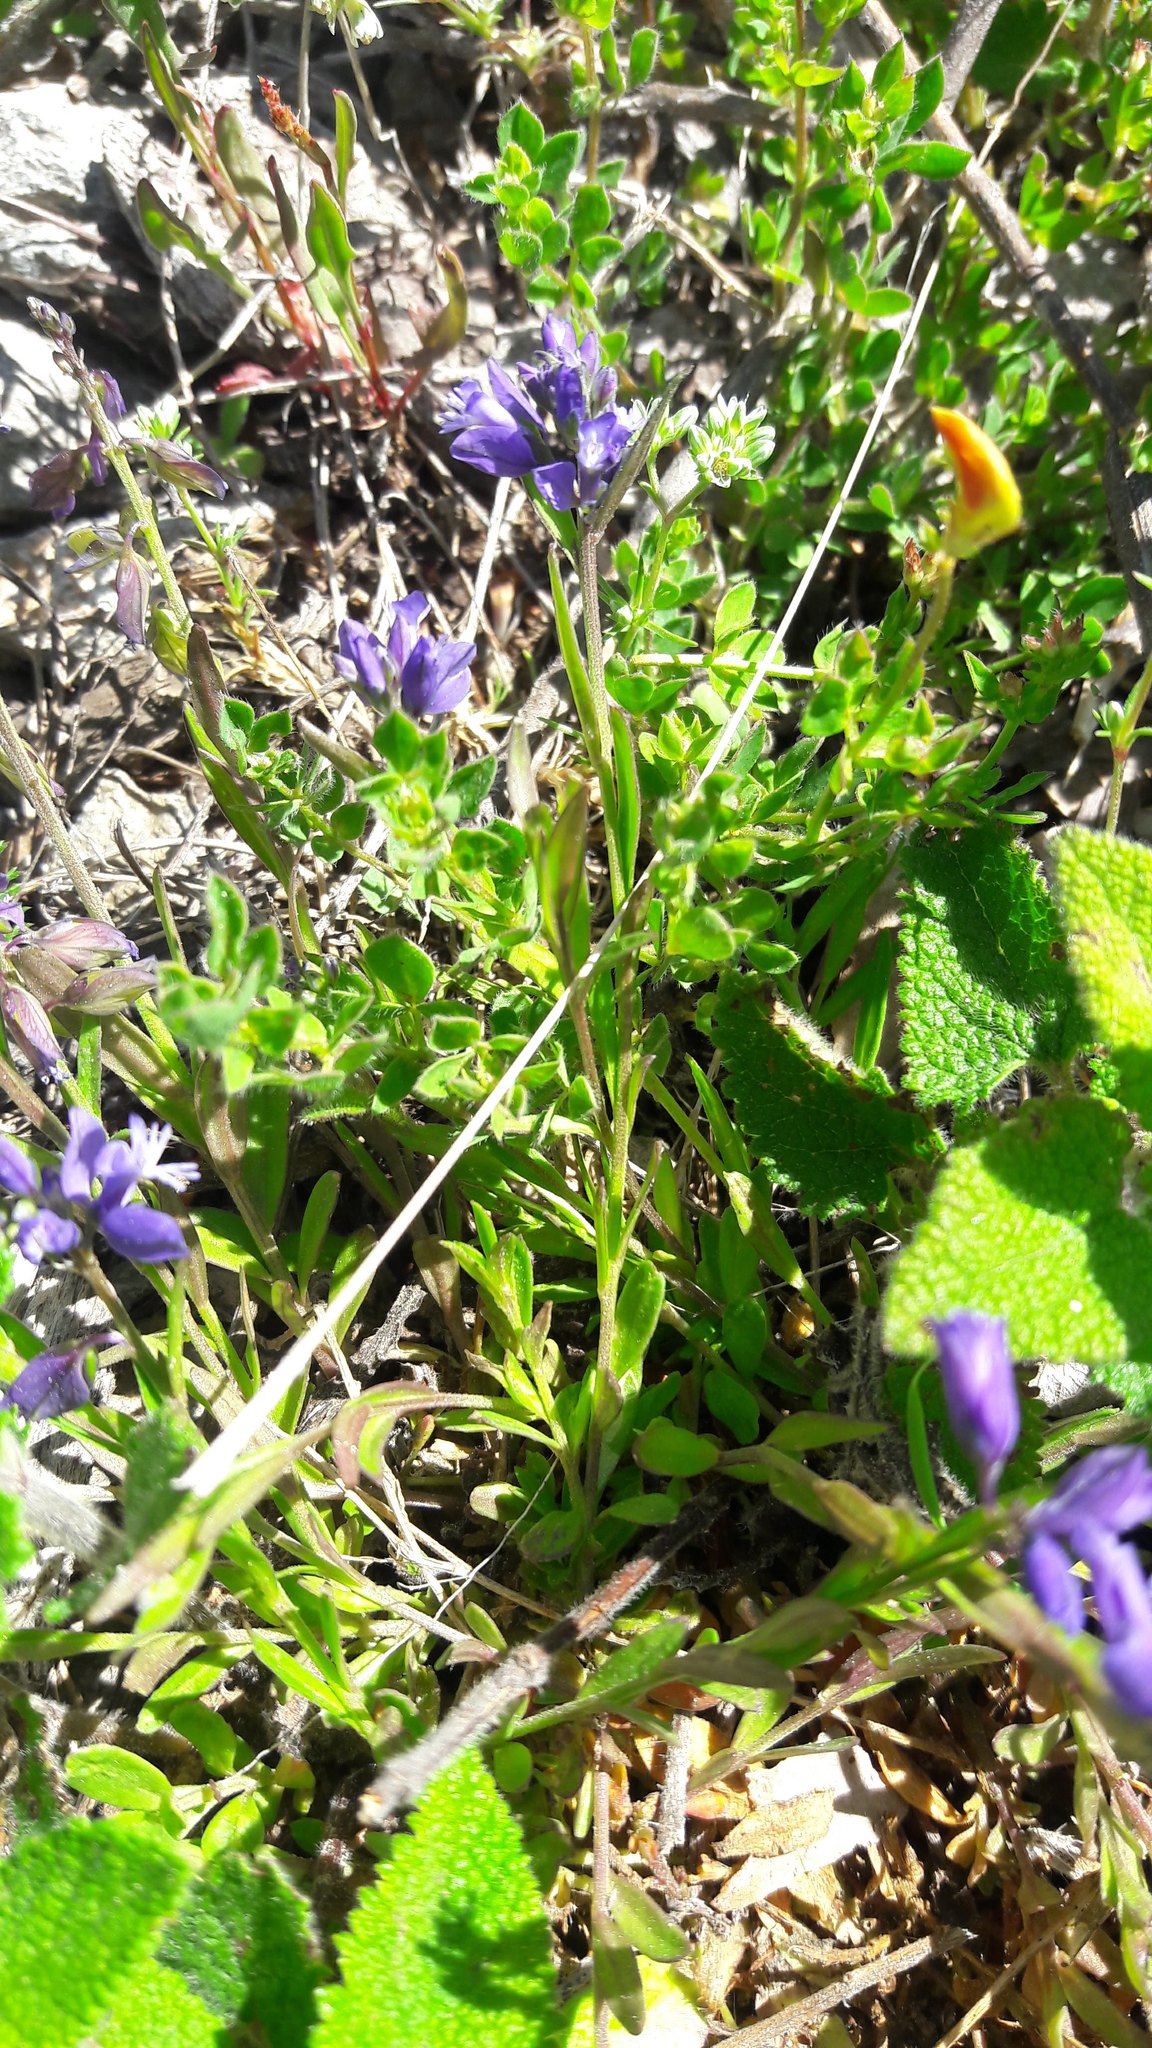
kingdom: Plantae
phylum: Tracheophyta
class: Magnoliopsida
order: Fabales
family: Polygalaceae
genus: Polygala
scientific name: Polygala vulgaris
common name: Common milkwort
